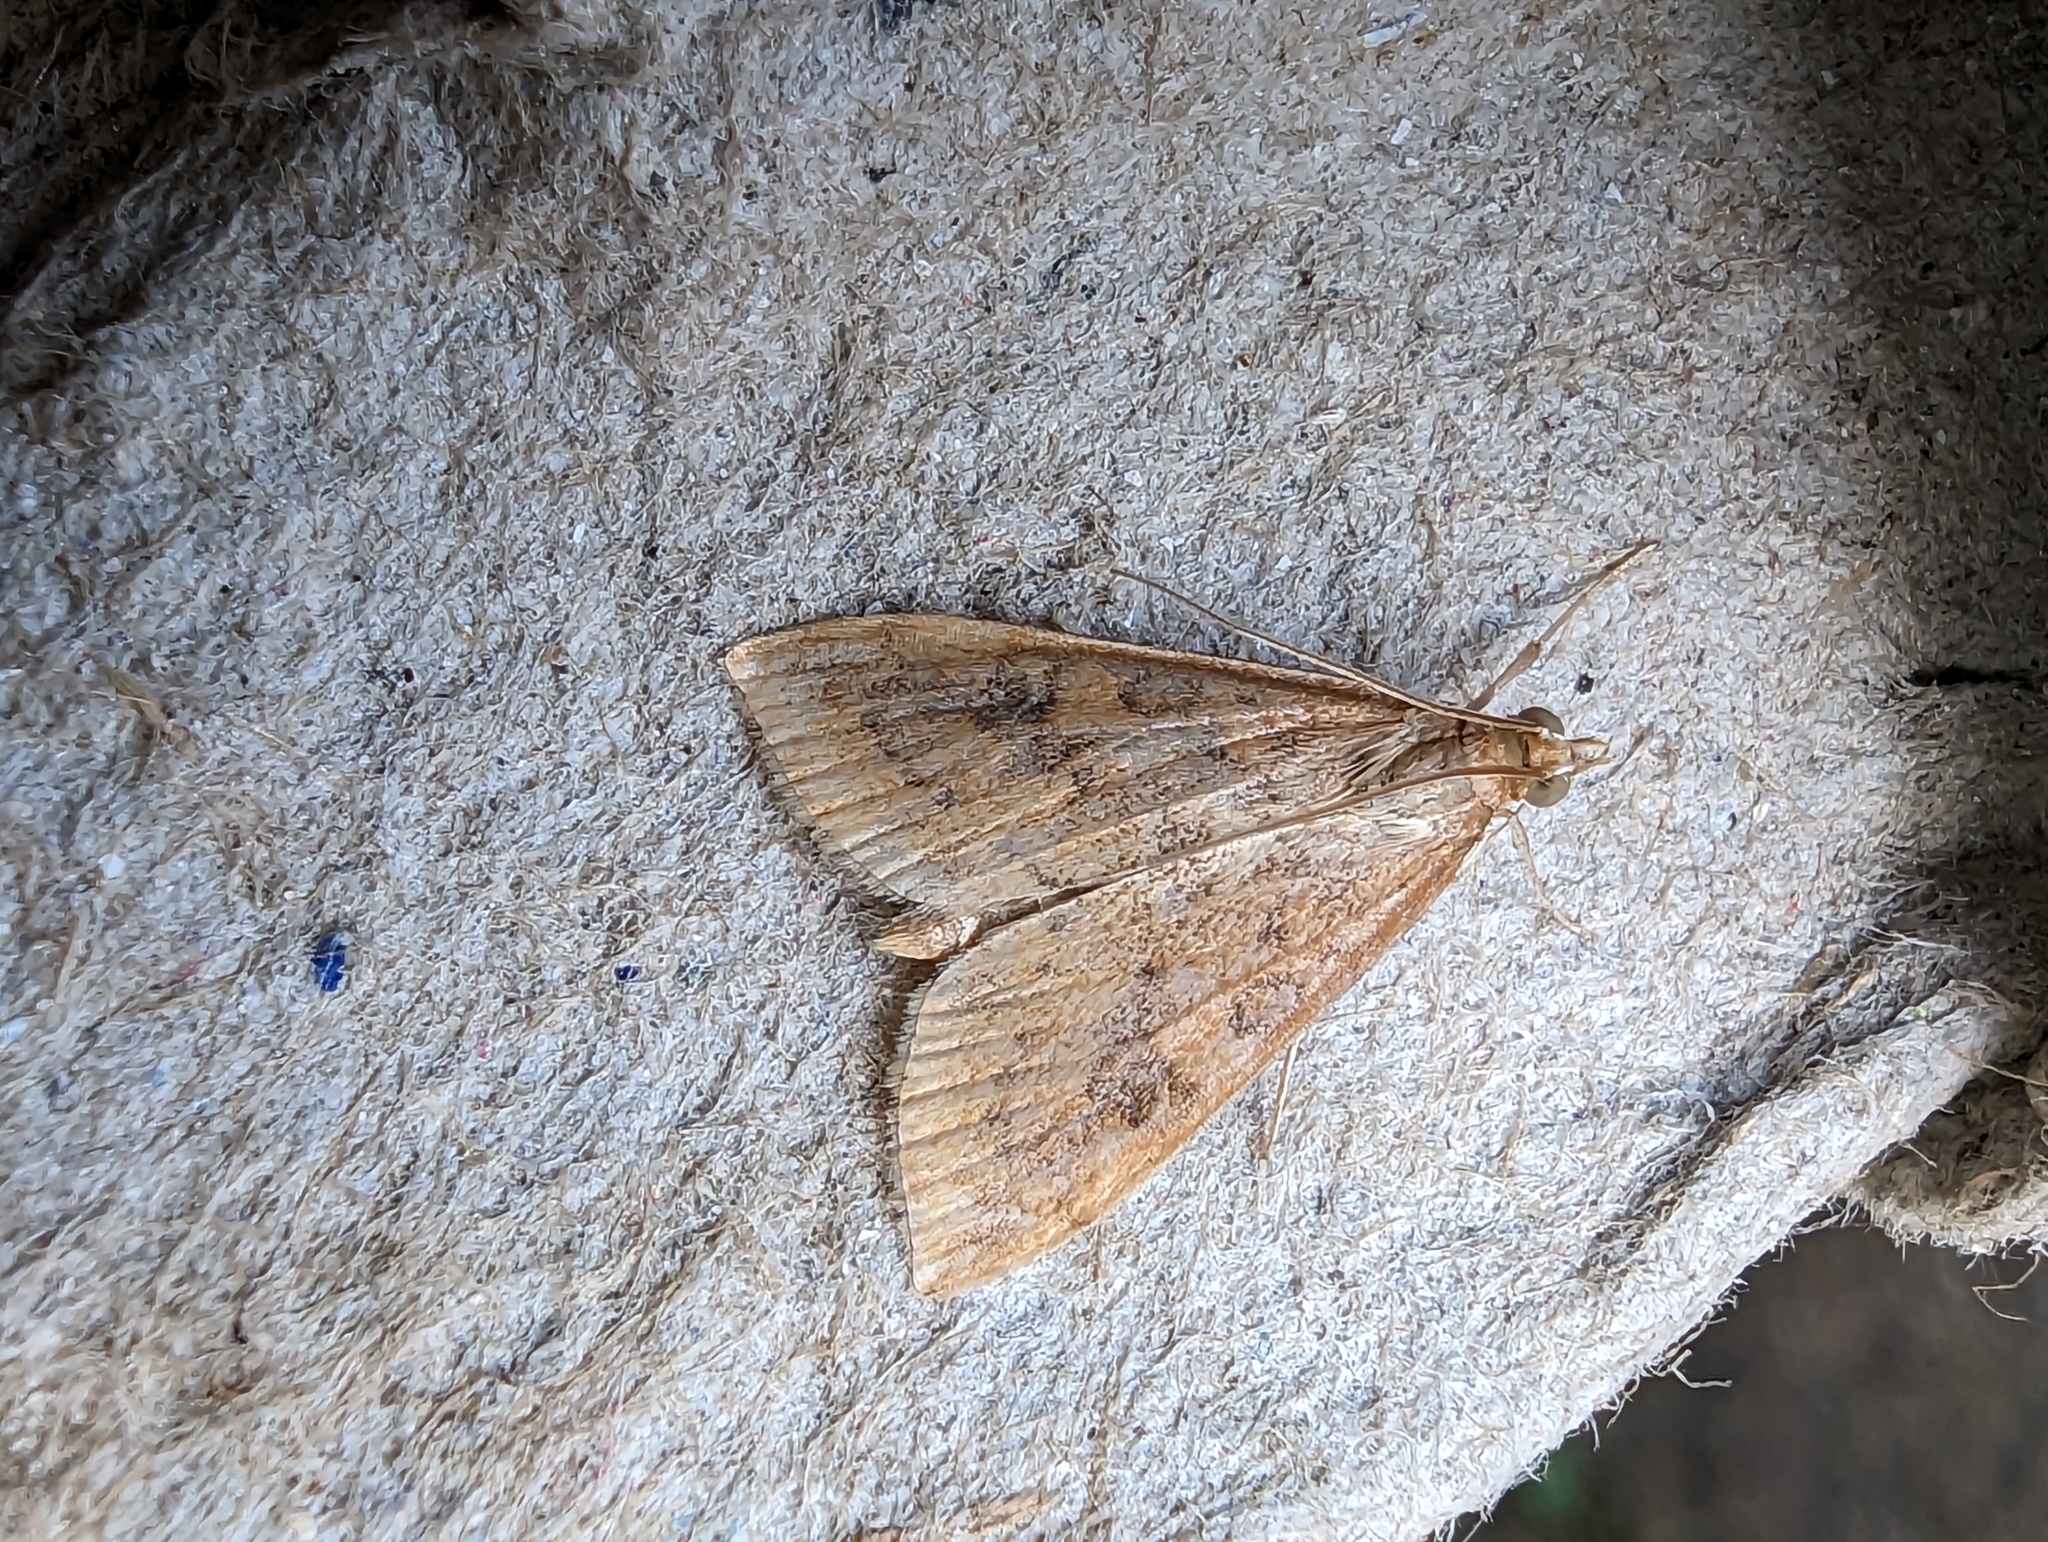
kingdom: Animalia
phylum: Arthropoda
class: Insecta
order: Lepidoptera
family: Crambidae
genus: Udea
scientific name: Udea ferrugalis
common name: Rusty dot
